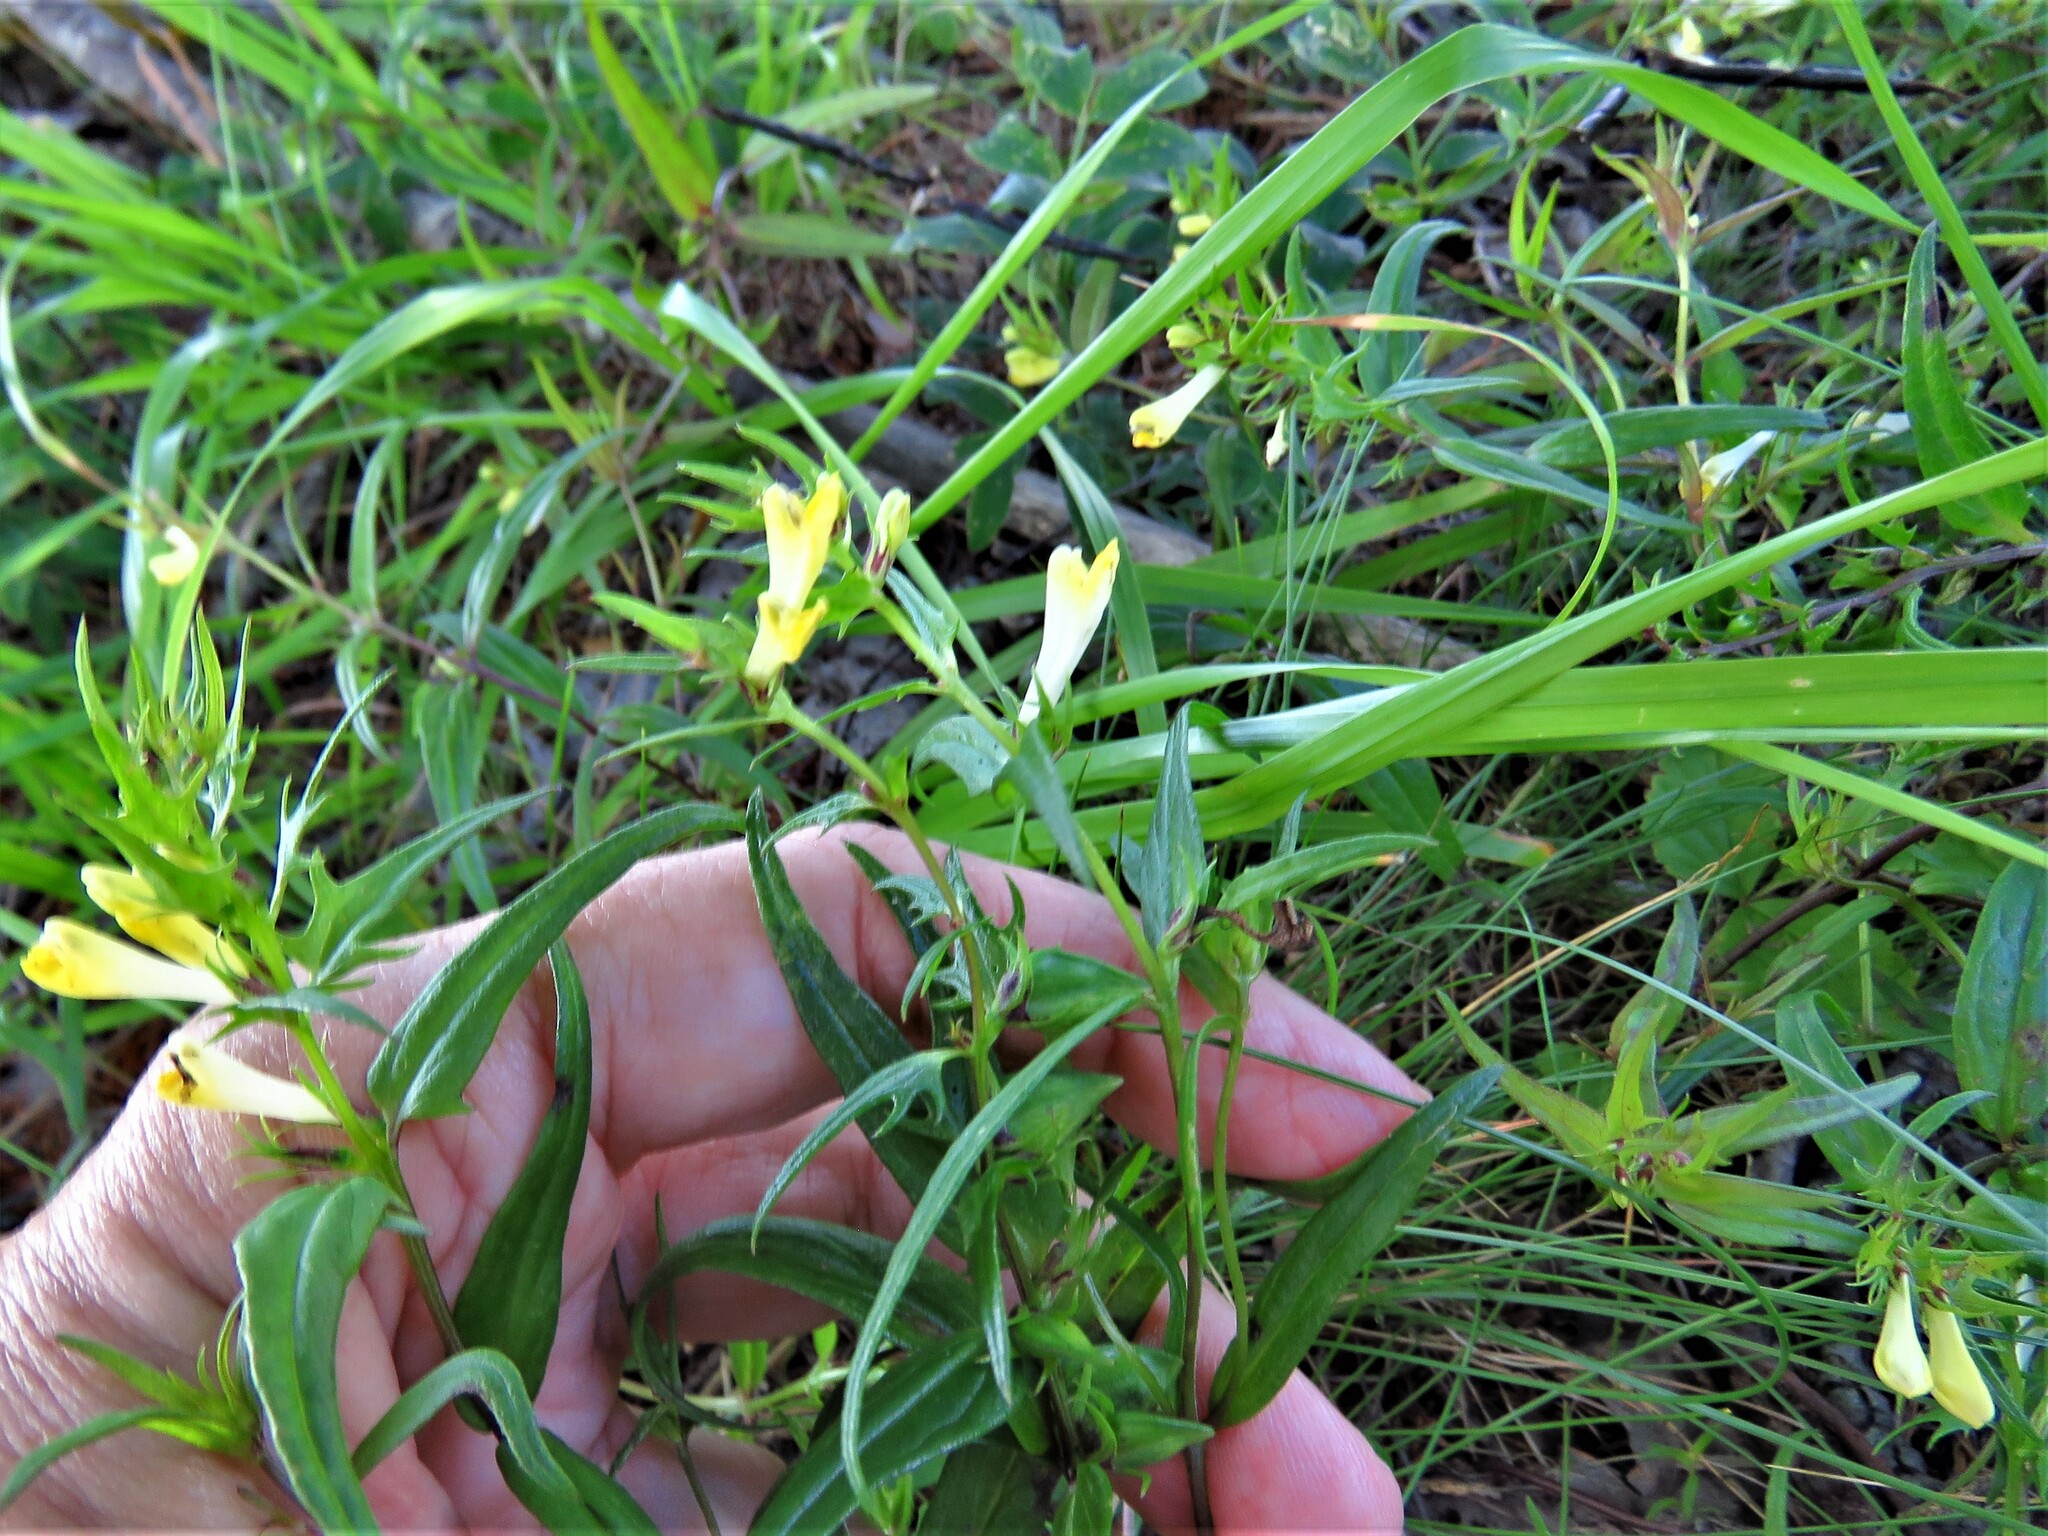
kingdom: Plantae
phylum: Tracheophyta
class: Magnoliopsida
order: Lamiales
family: Orobanchaceae
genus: Melampyrum
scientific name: Melampyrum pratense
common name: Common cow-wheat
